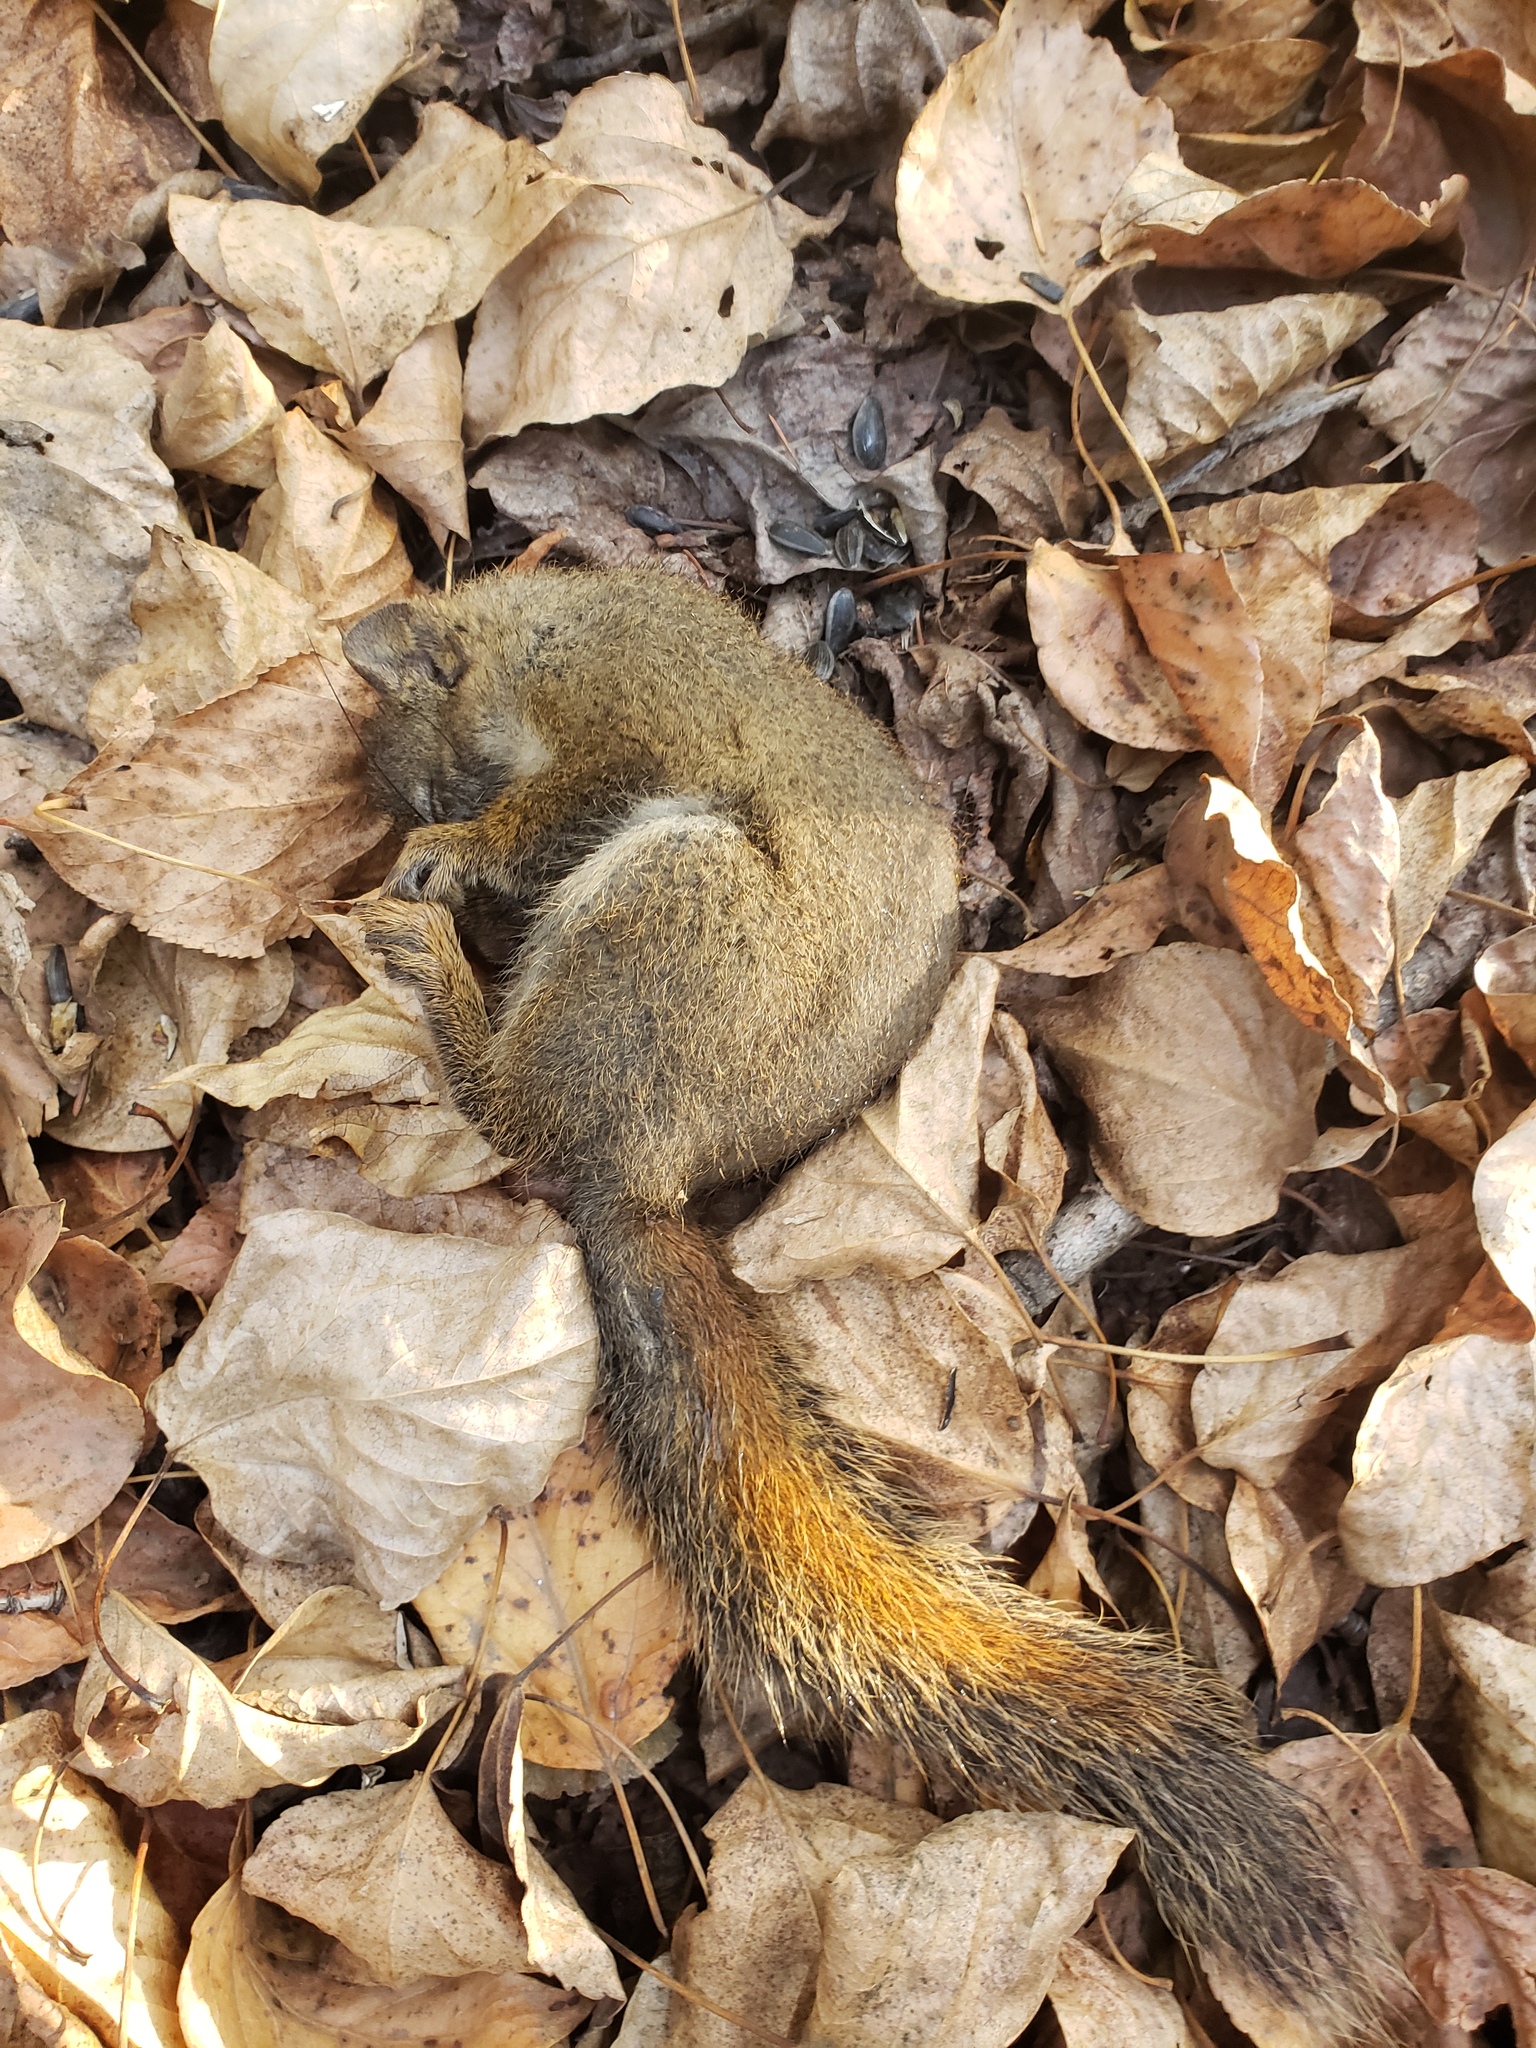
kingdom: Animalia
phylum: Chordata
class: Mammalia
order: Rodentia
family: Sciuridae
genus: Tamiasciurus
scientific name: Tamiasciurus hudsonicus
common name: Red squirrel
